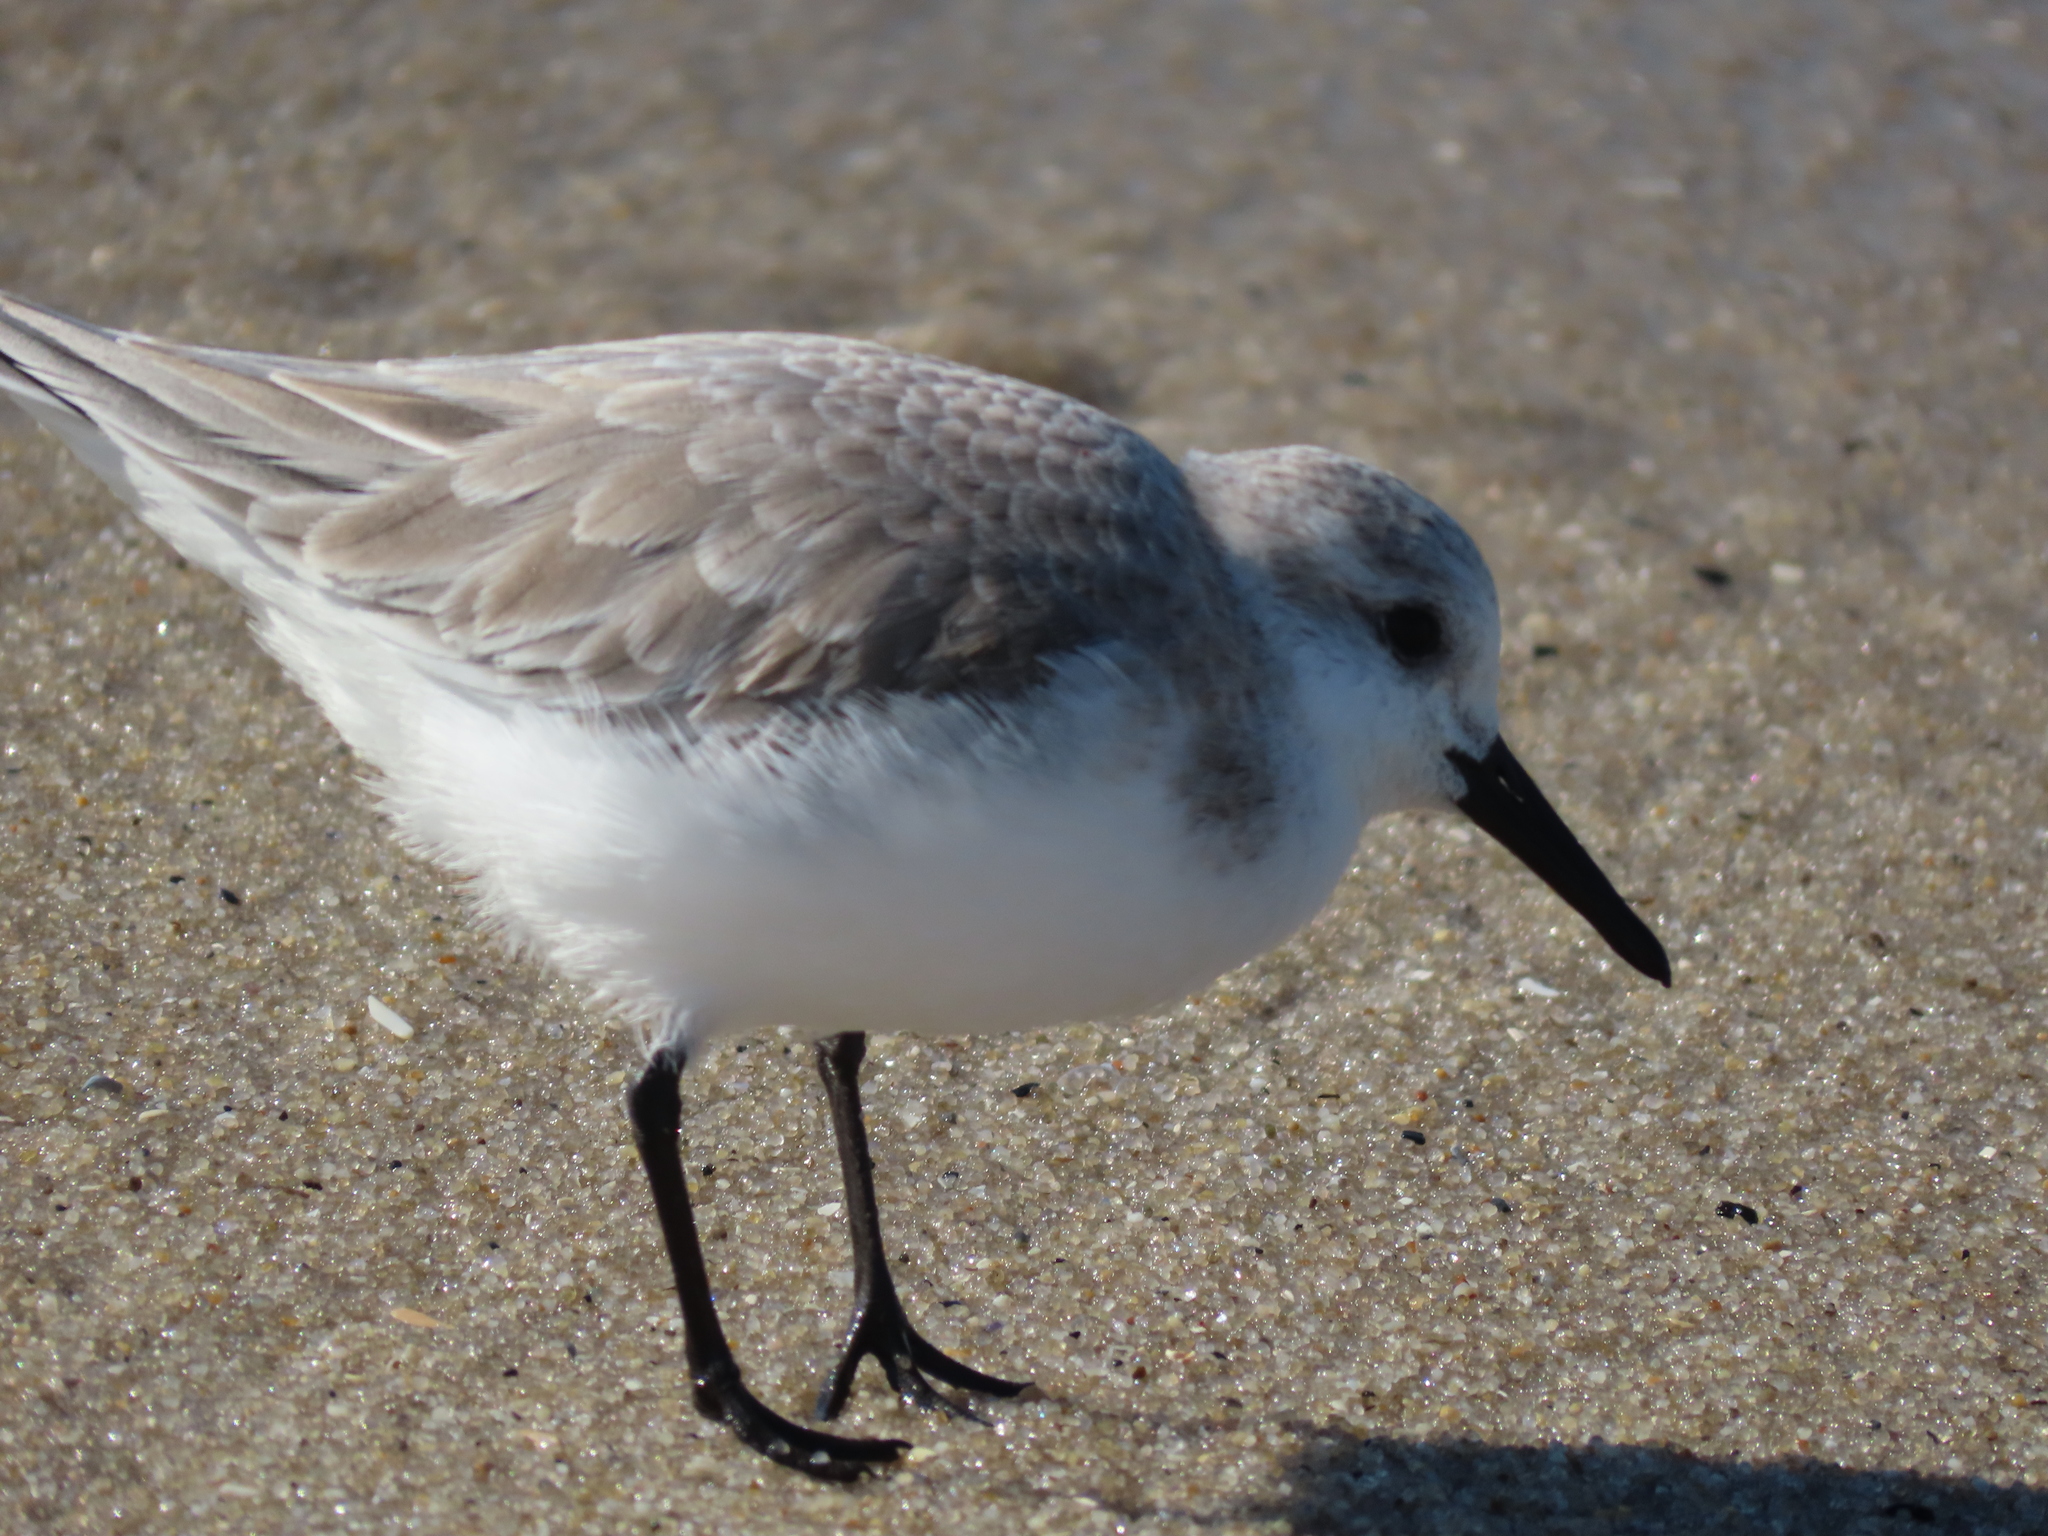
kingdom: Animalia
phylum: Chordata
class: Aves
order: Charadriiformes
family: Scolopacidae
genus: Calidris
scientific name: Calidris alba
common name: Sanderling
